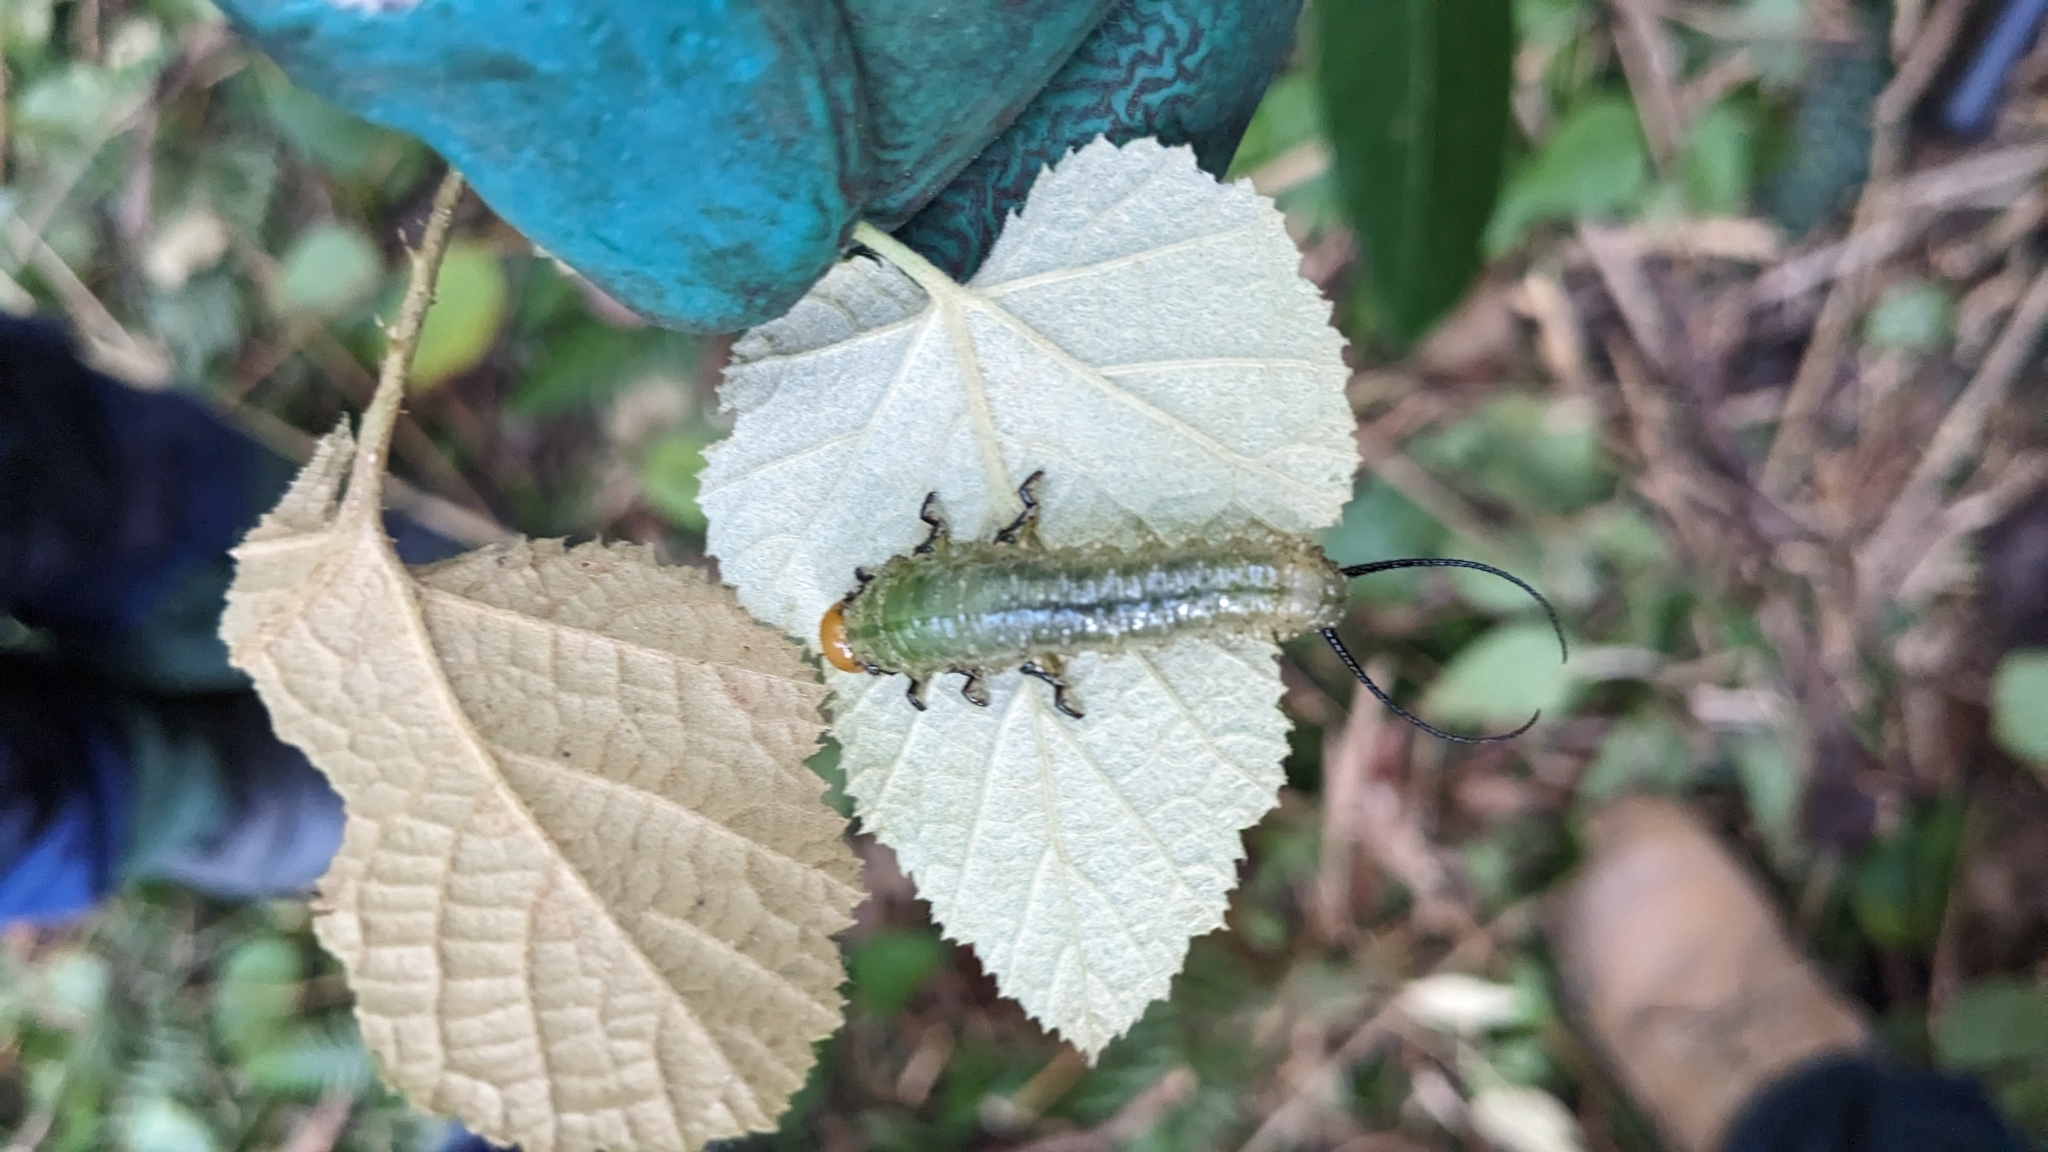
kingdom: Animalia
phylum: Arthropoda
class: Insecta
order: Hymenoptera
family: Pergidae
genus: Philomastix
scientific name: Philomastix macleaii
